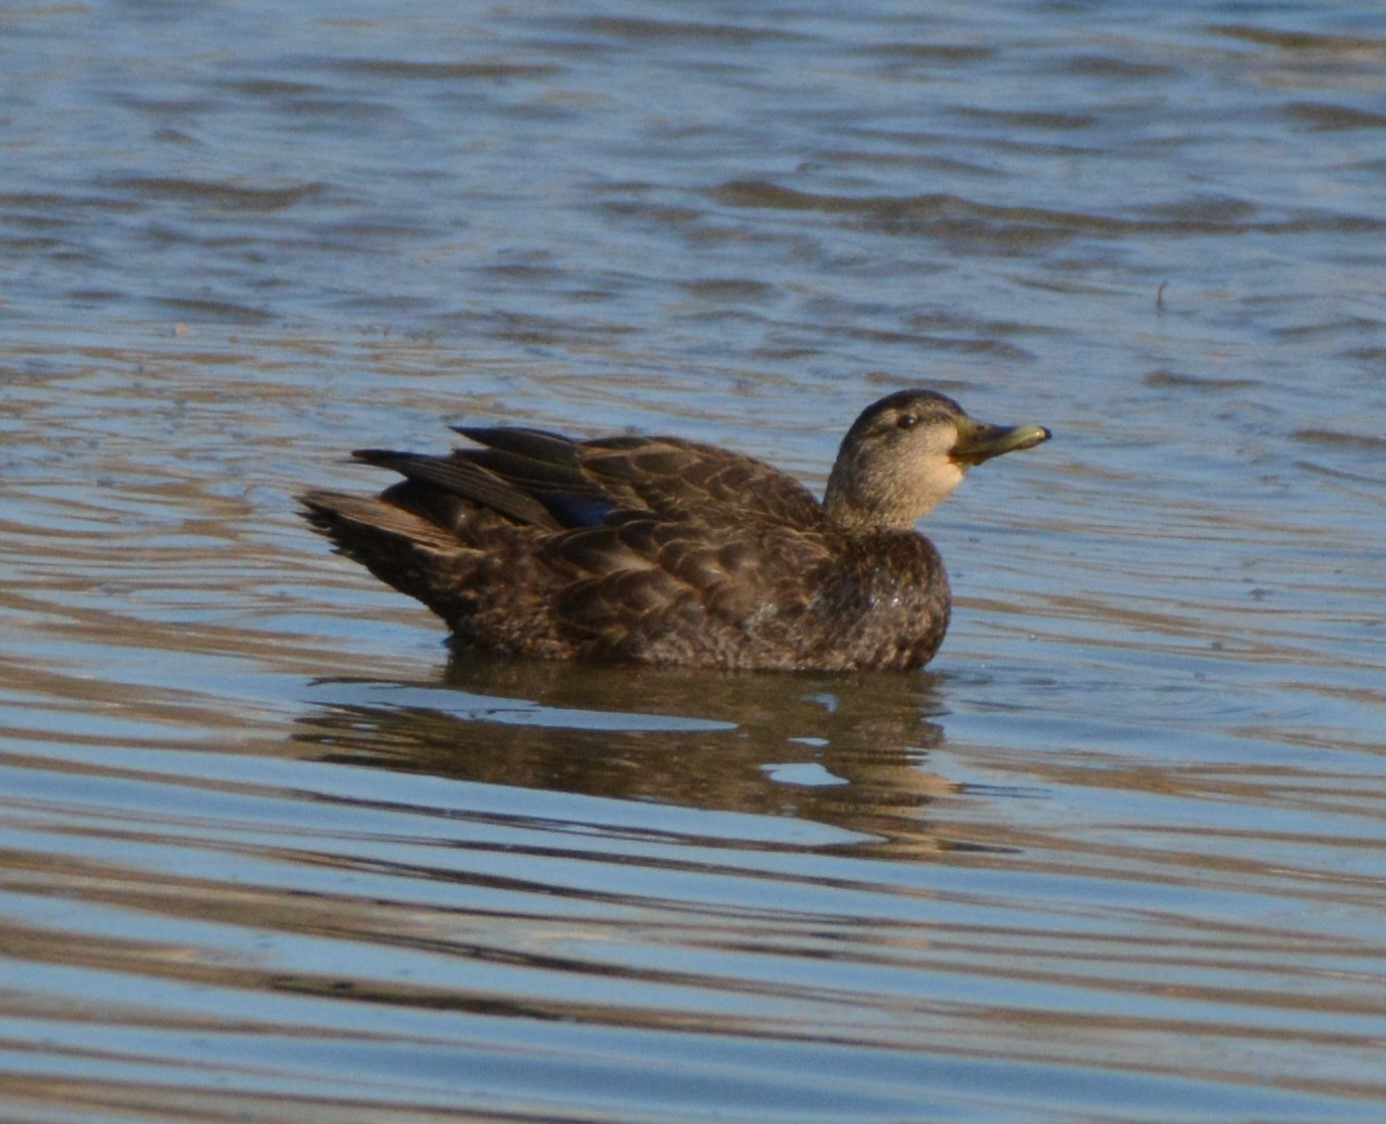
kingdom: Animalia
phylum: Chordata
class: Aves
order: Anseriformes
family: Anatidae
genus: Anas
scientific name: Anas rubripes
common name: American black duck
